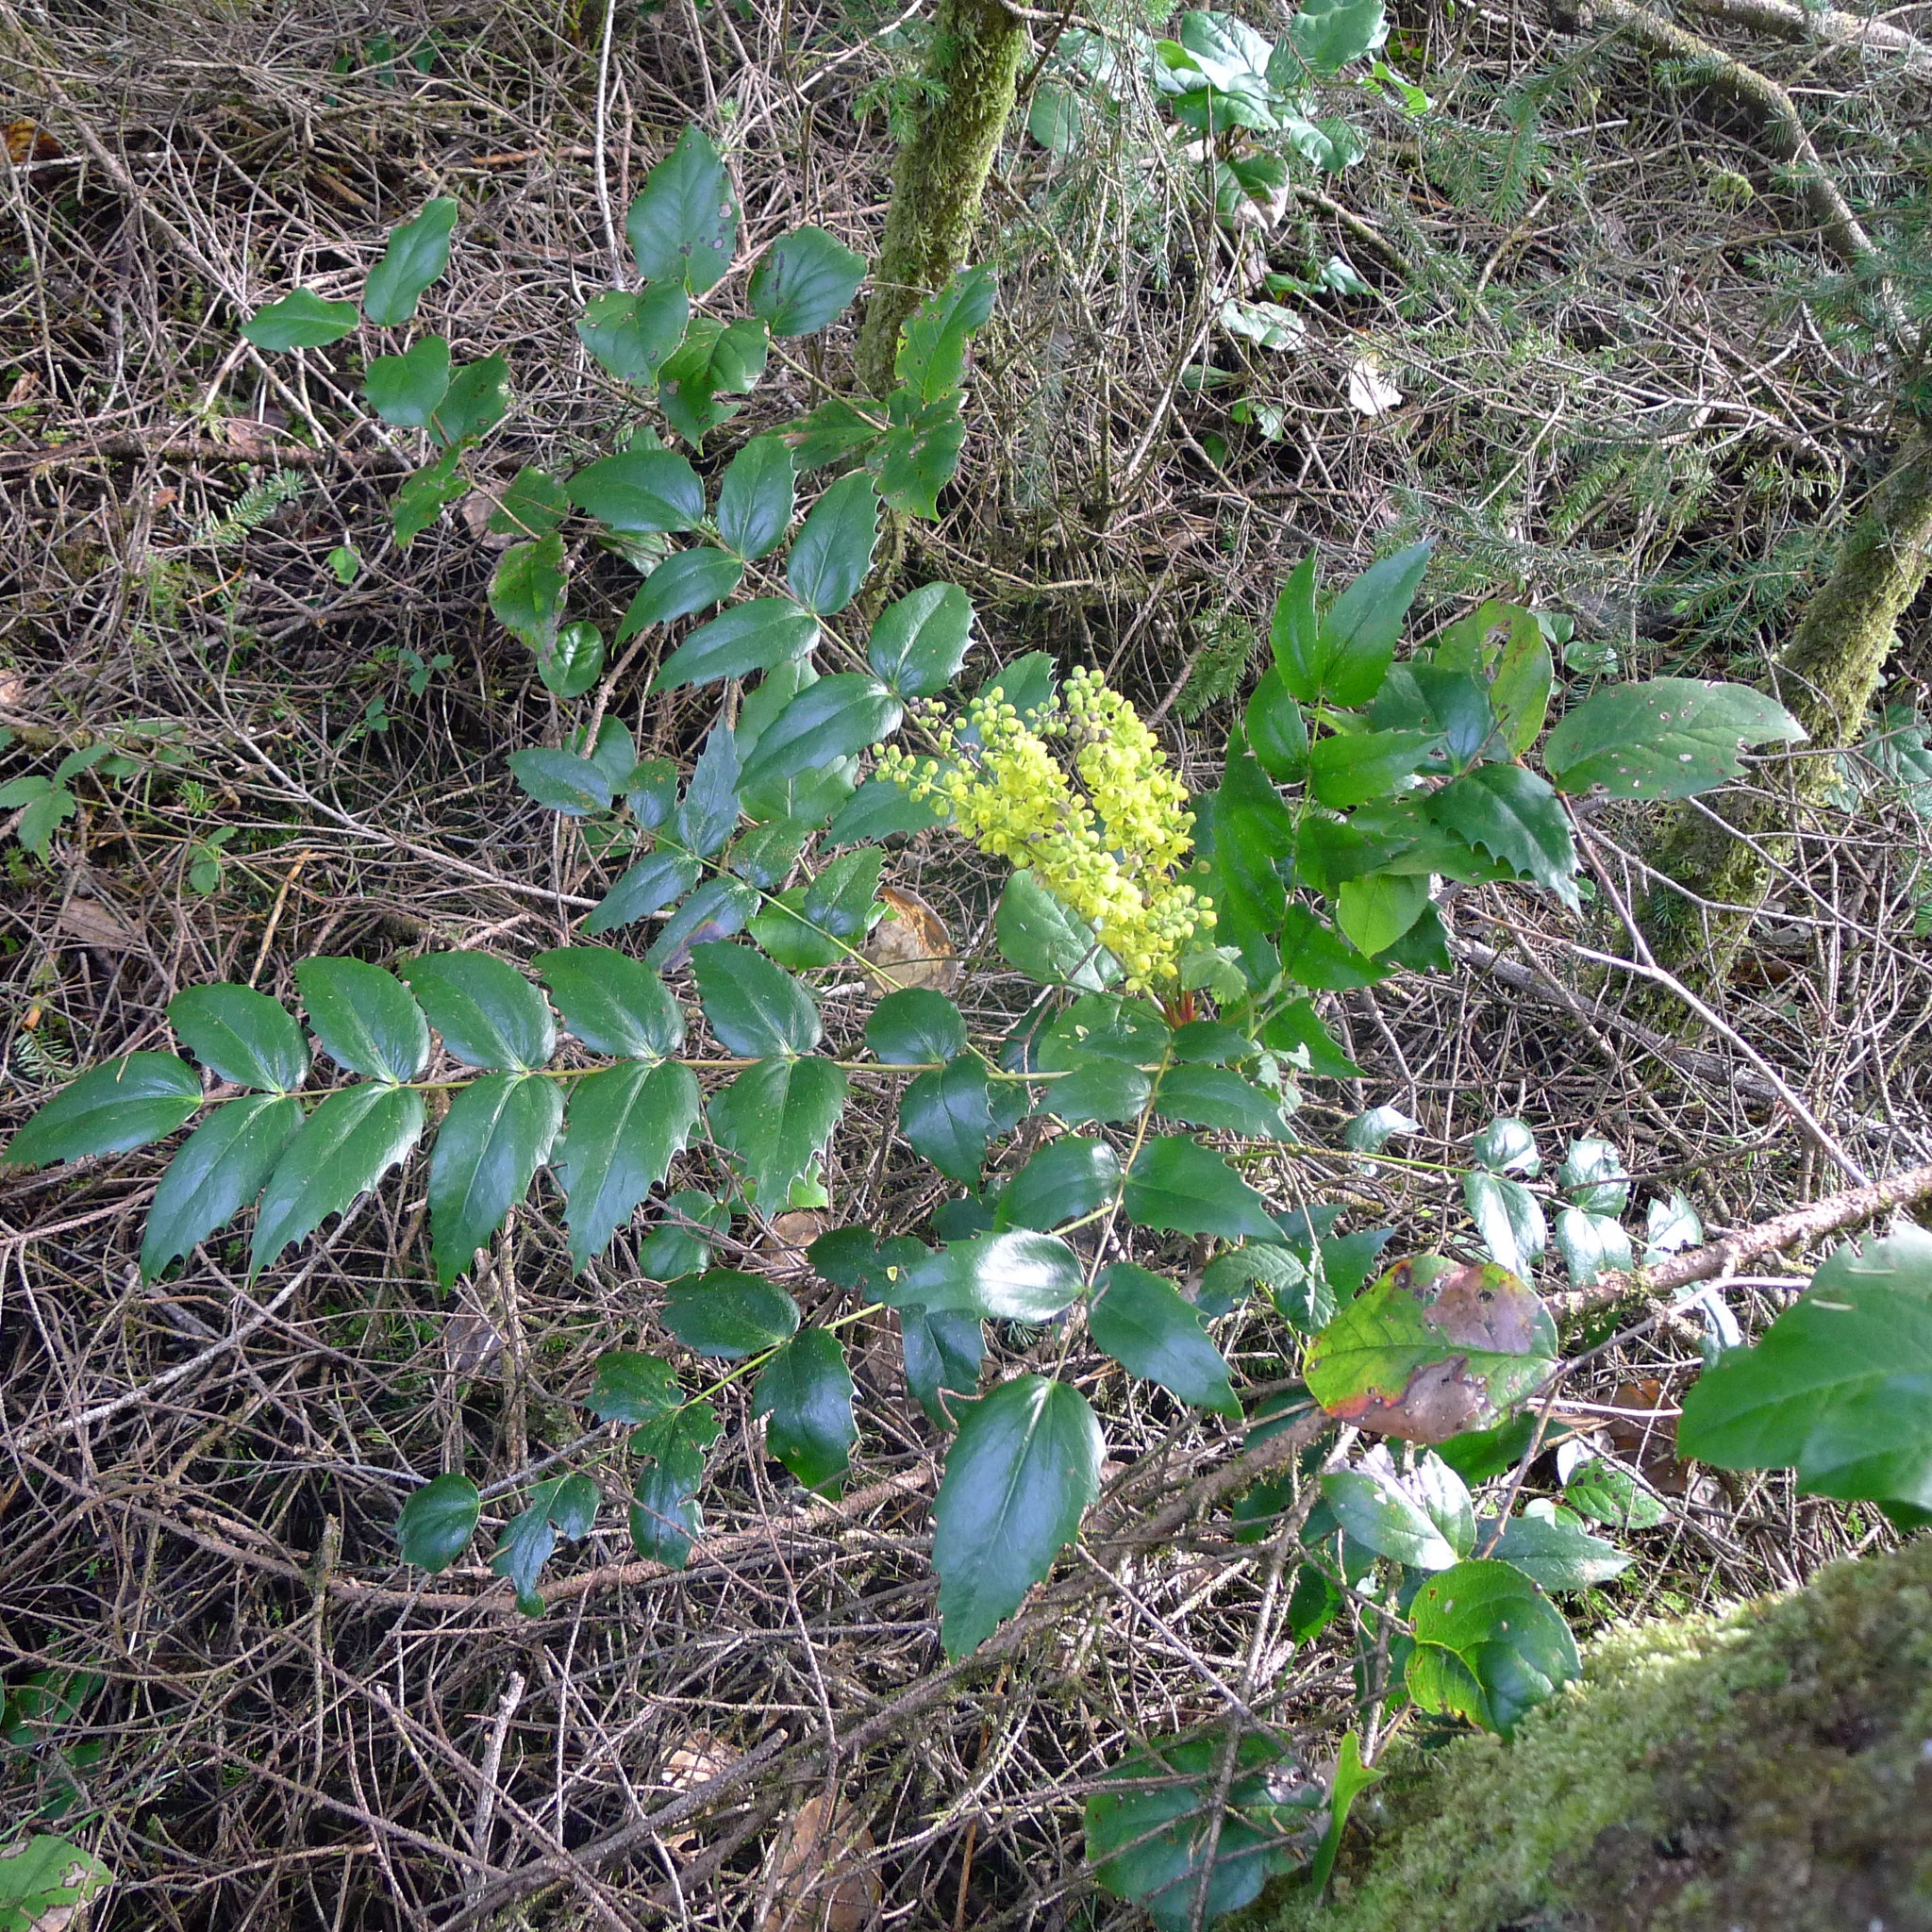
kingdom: Plantae
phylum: Tracheophyta
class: Magnoliopsida
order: Ranunculales
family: Berberidaceae
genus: Mahonia
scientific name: Mahonia nervosa
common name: Cascade oregon-grape
